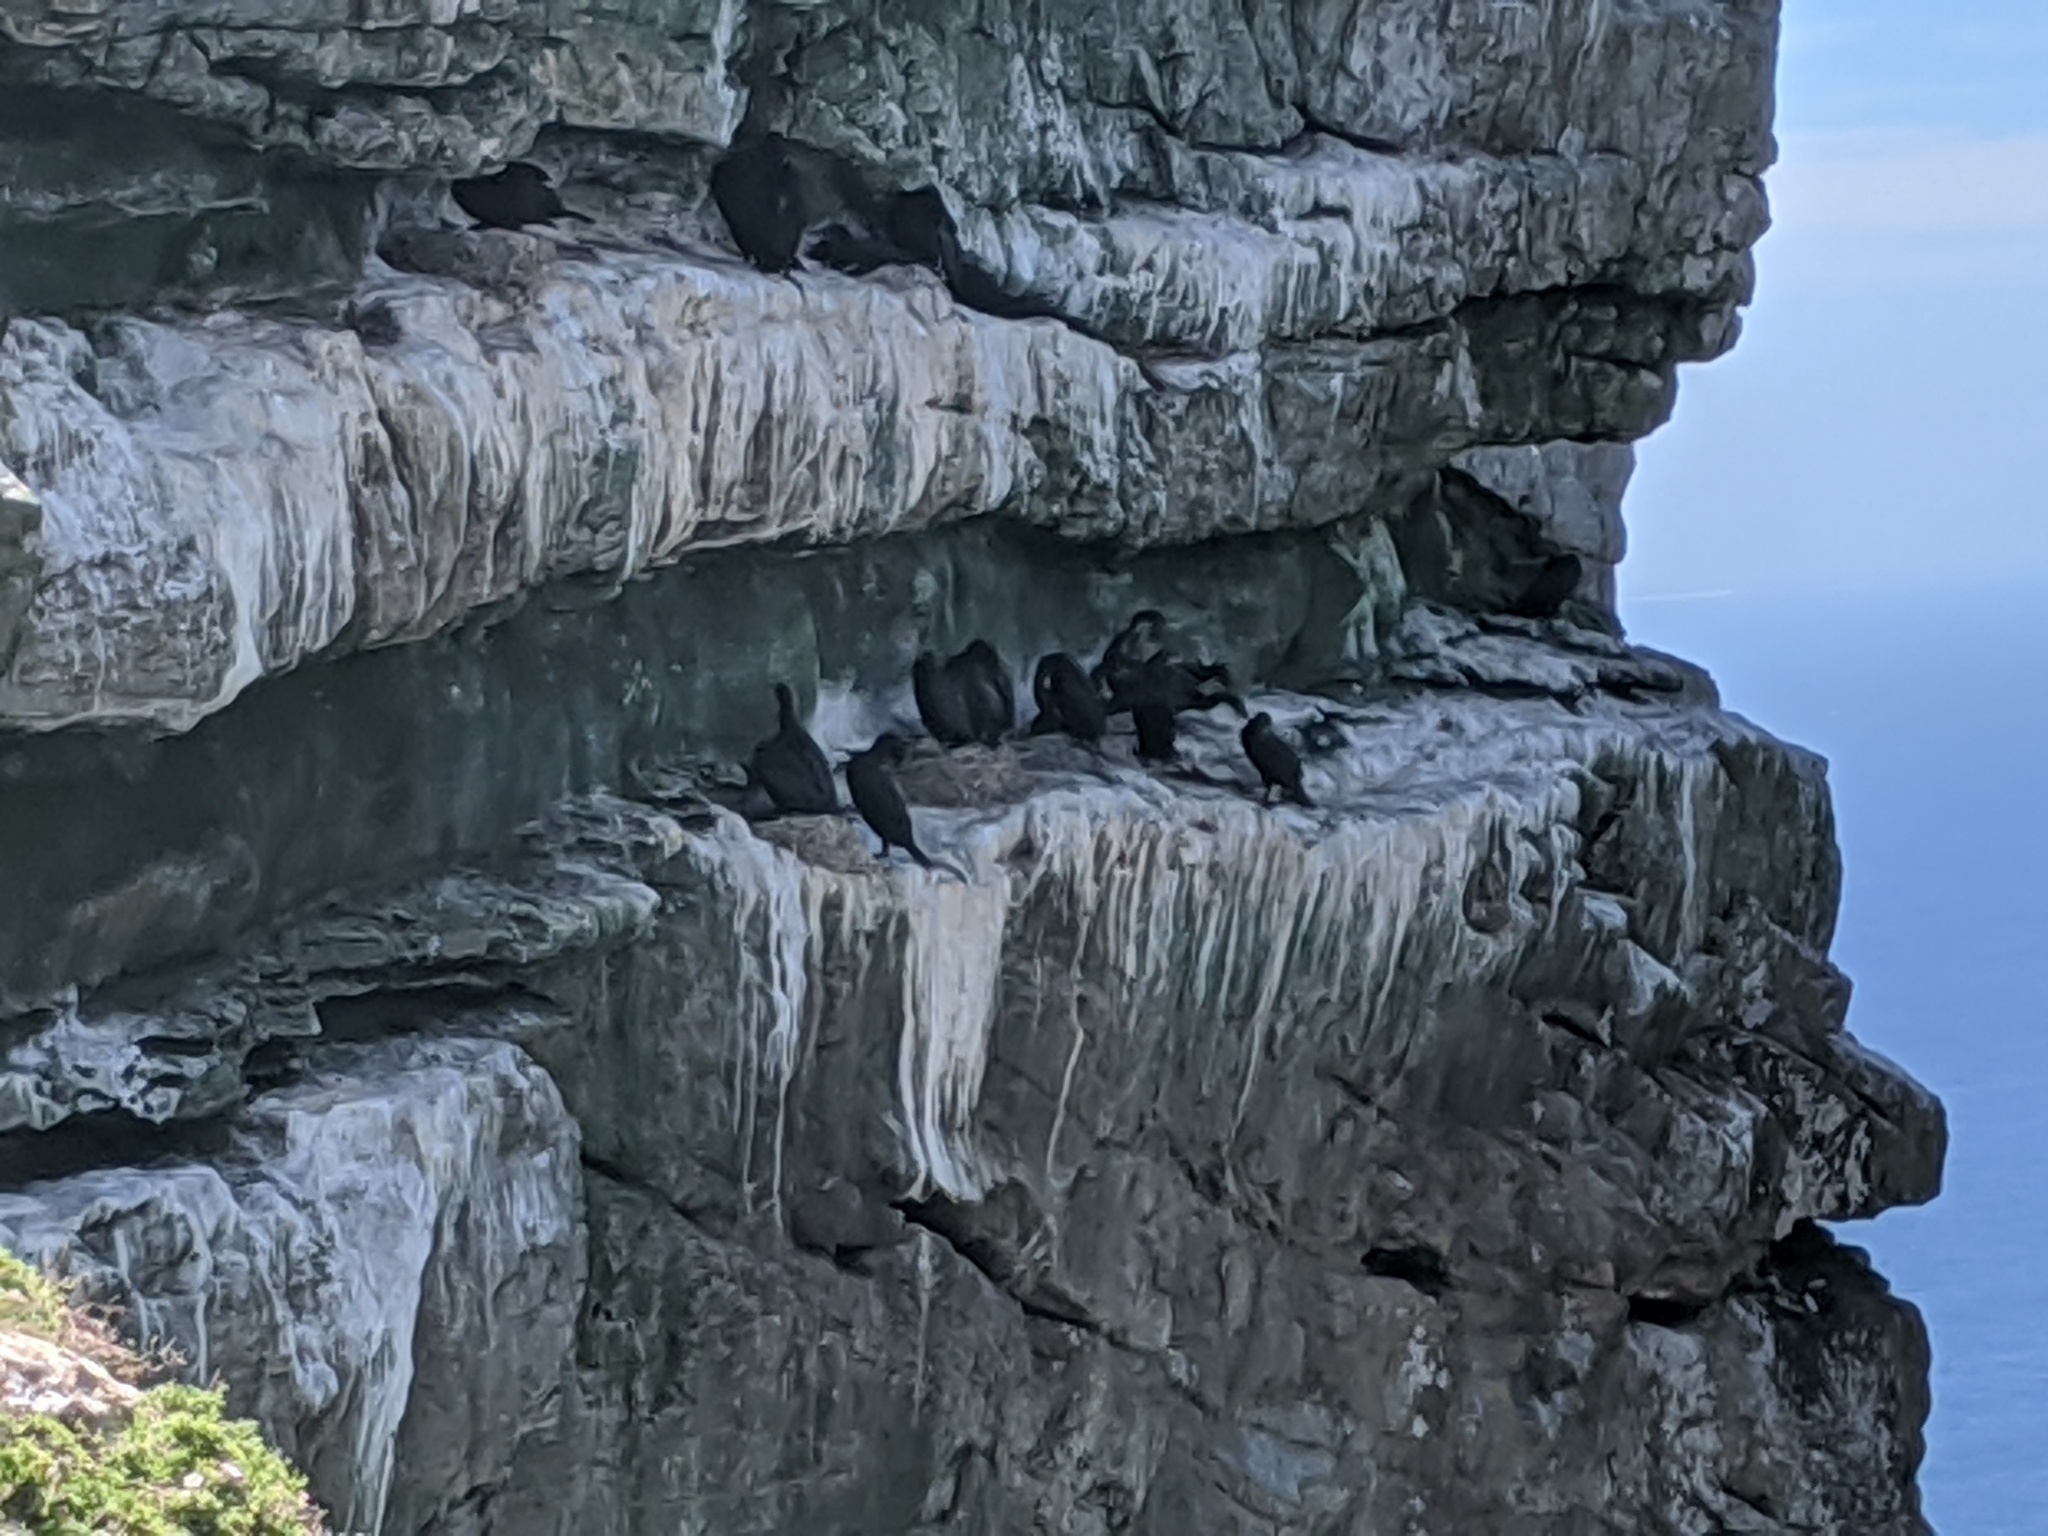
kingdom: Animalia
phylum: Chordata
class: Aves
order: Suliformes
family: Phalacrocoracidae
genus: Phalacrocorax
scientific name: Phalacrocorax capensis
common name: Cape cormorant
